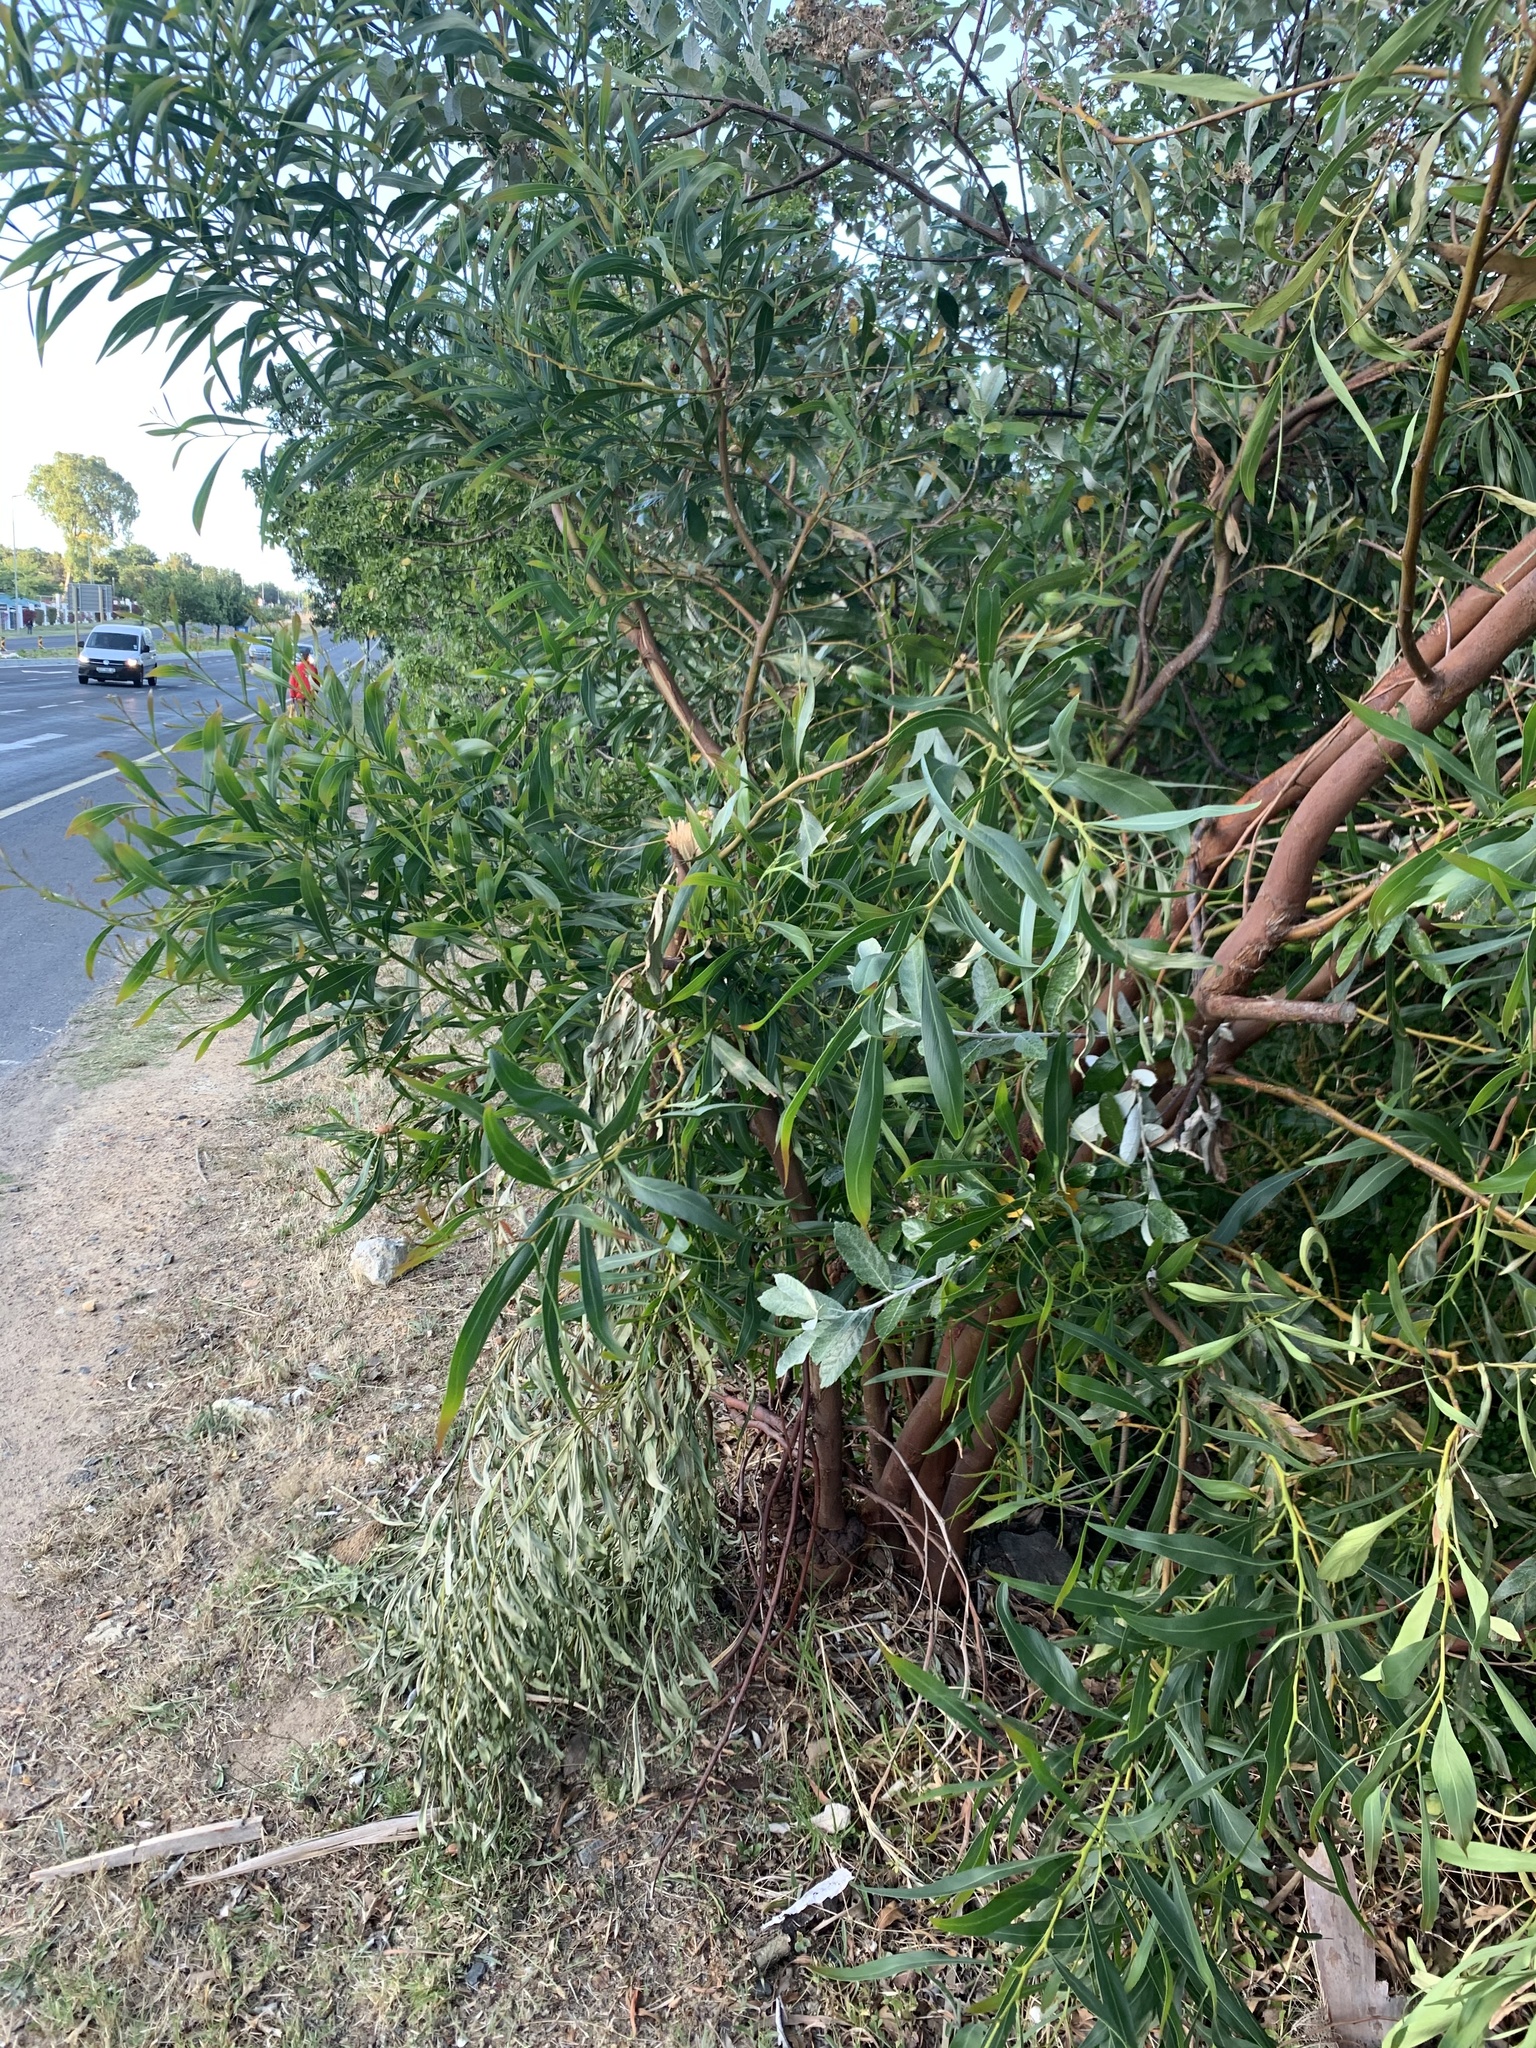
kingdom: Plantae
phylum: Tracheophyta
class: Magnoliopsida
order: Fabales
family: Fabaceae
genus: Acacia
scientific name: Acacia saligna
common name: Orange wattle
